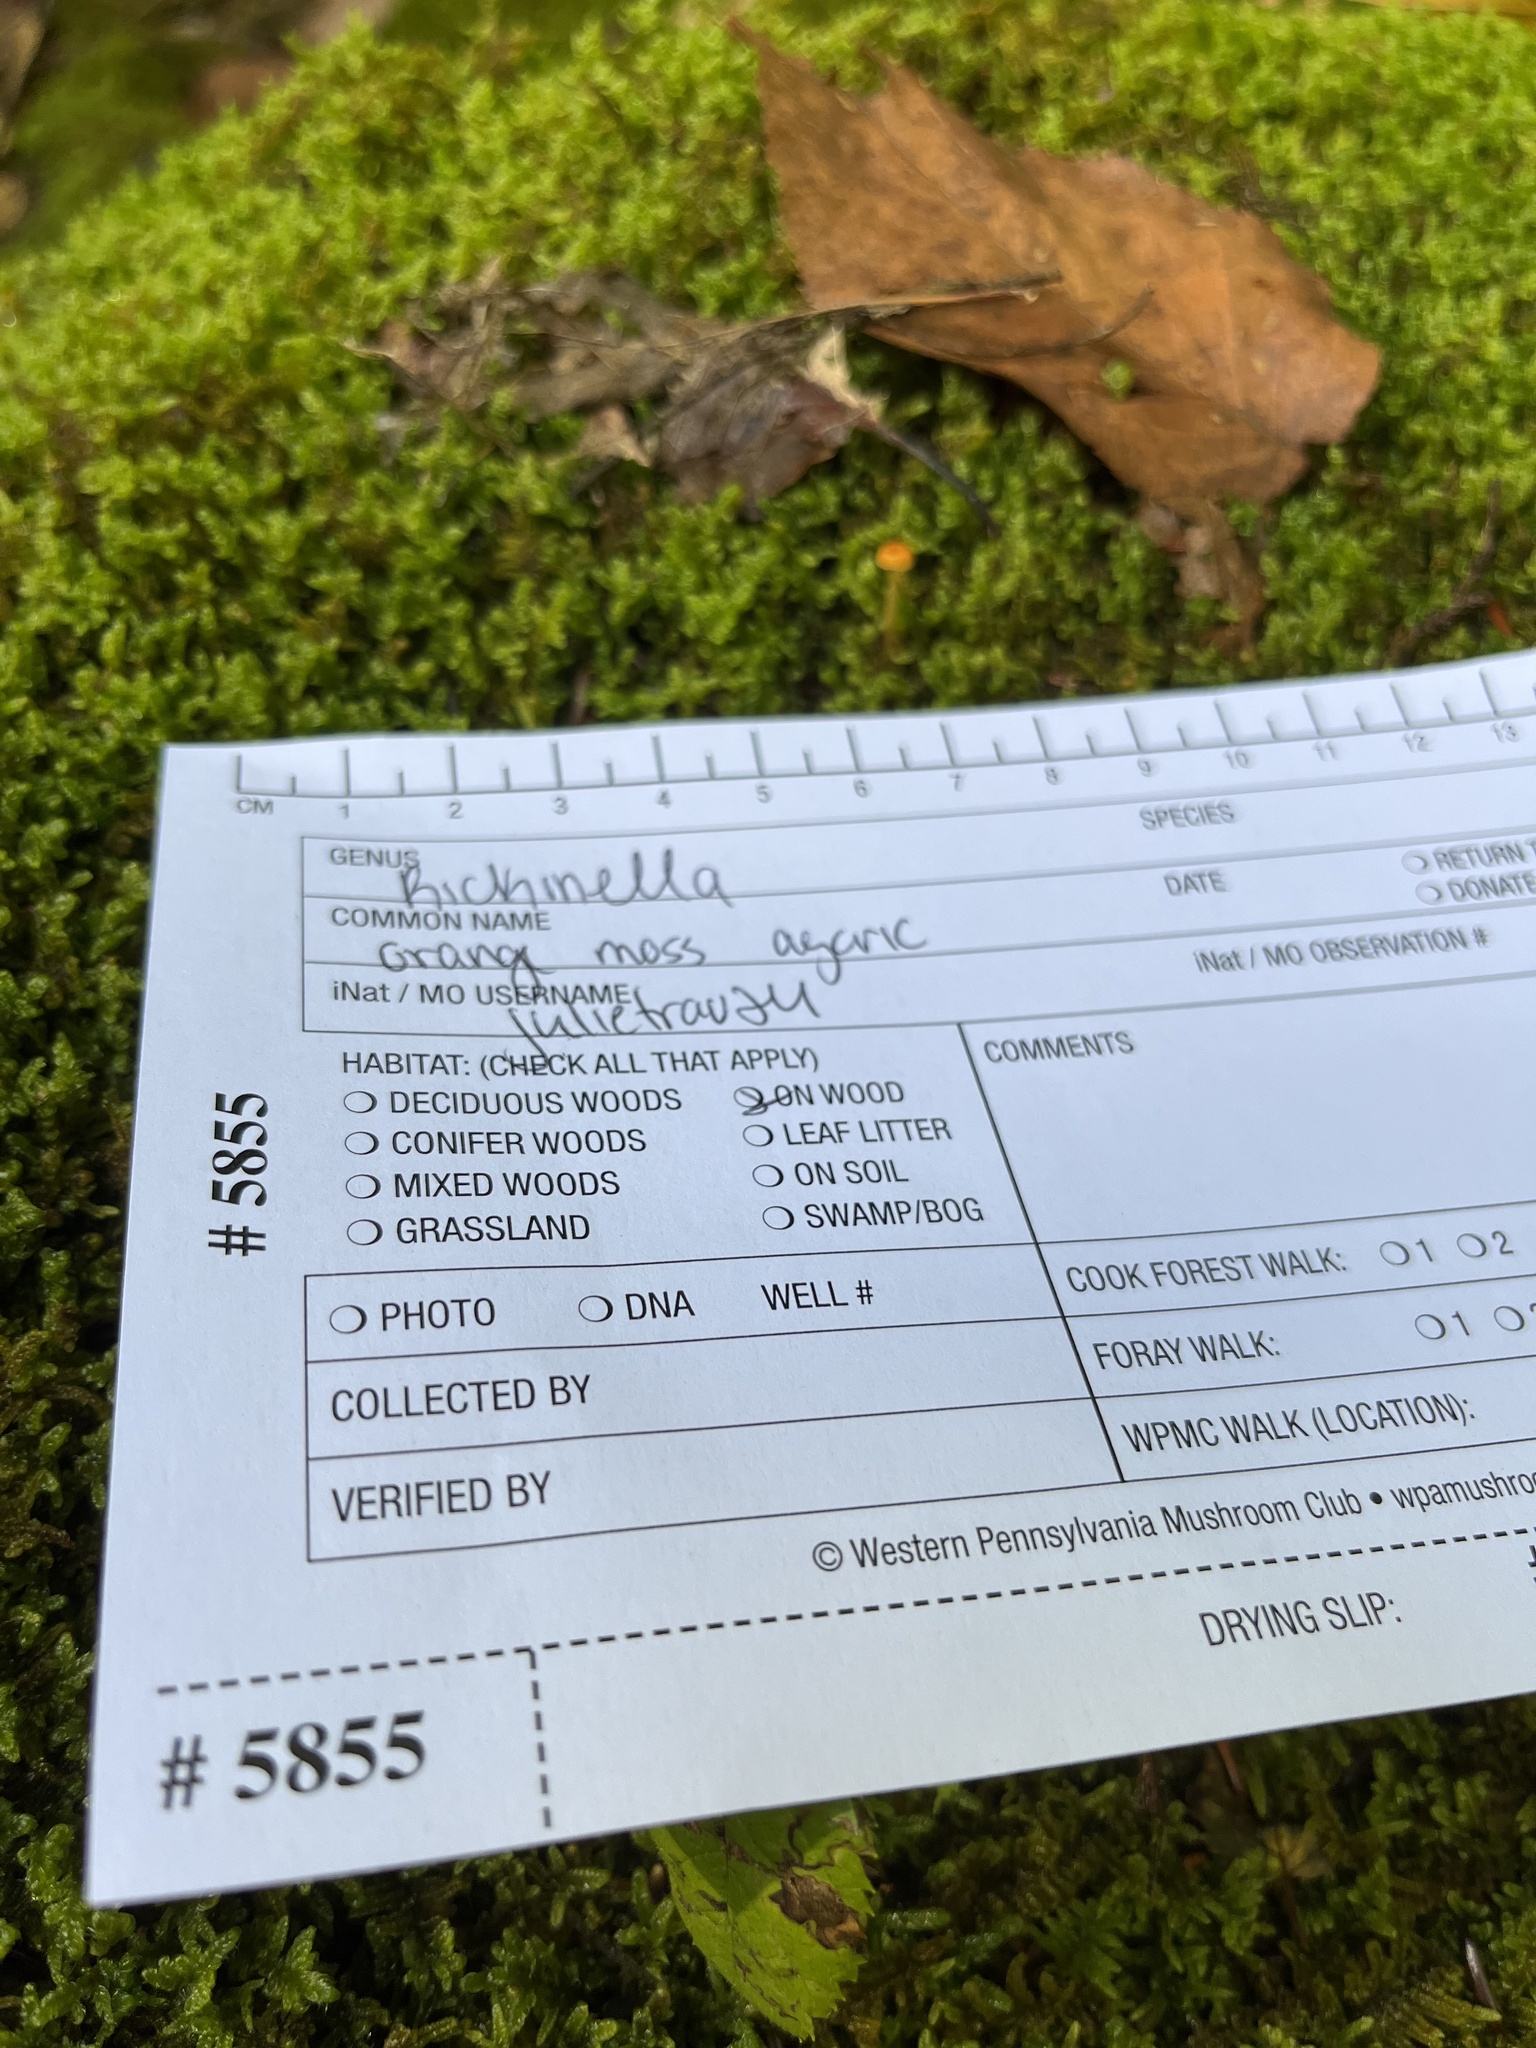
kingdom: Fungi
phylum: Basidiomycota
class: Agaricomycetes
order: Hymenochaetales
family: Rickenellaceae
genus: Rickenella
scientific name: Rickenella fibula
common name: Orange mosscap
